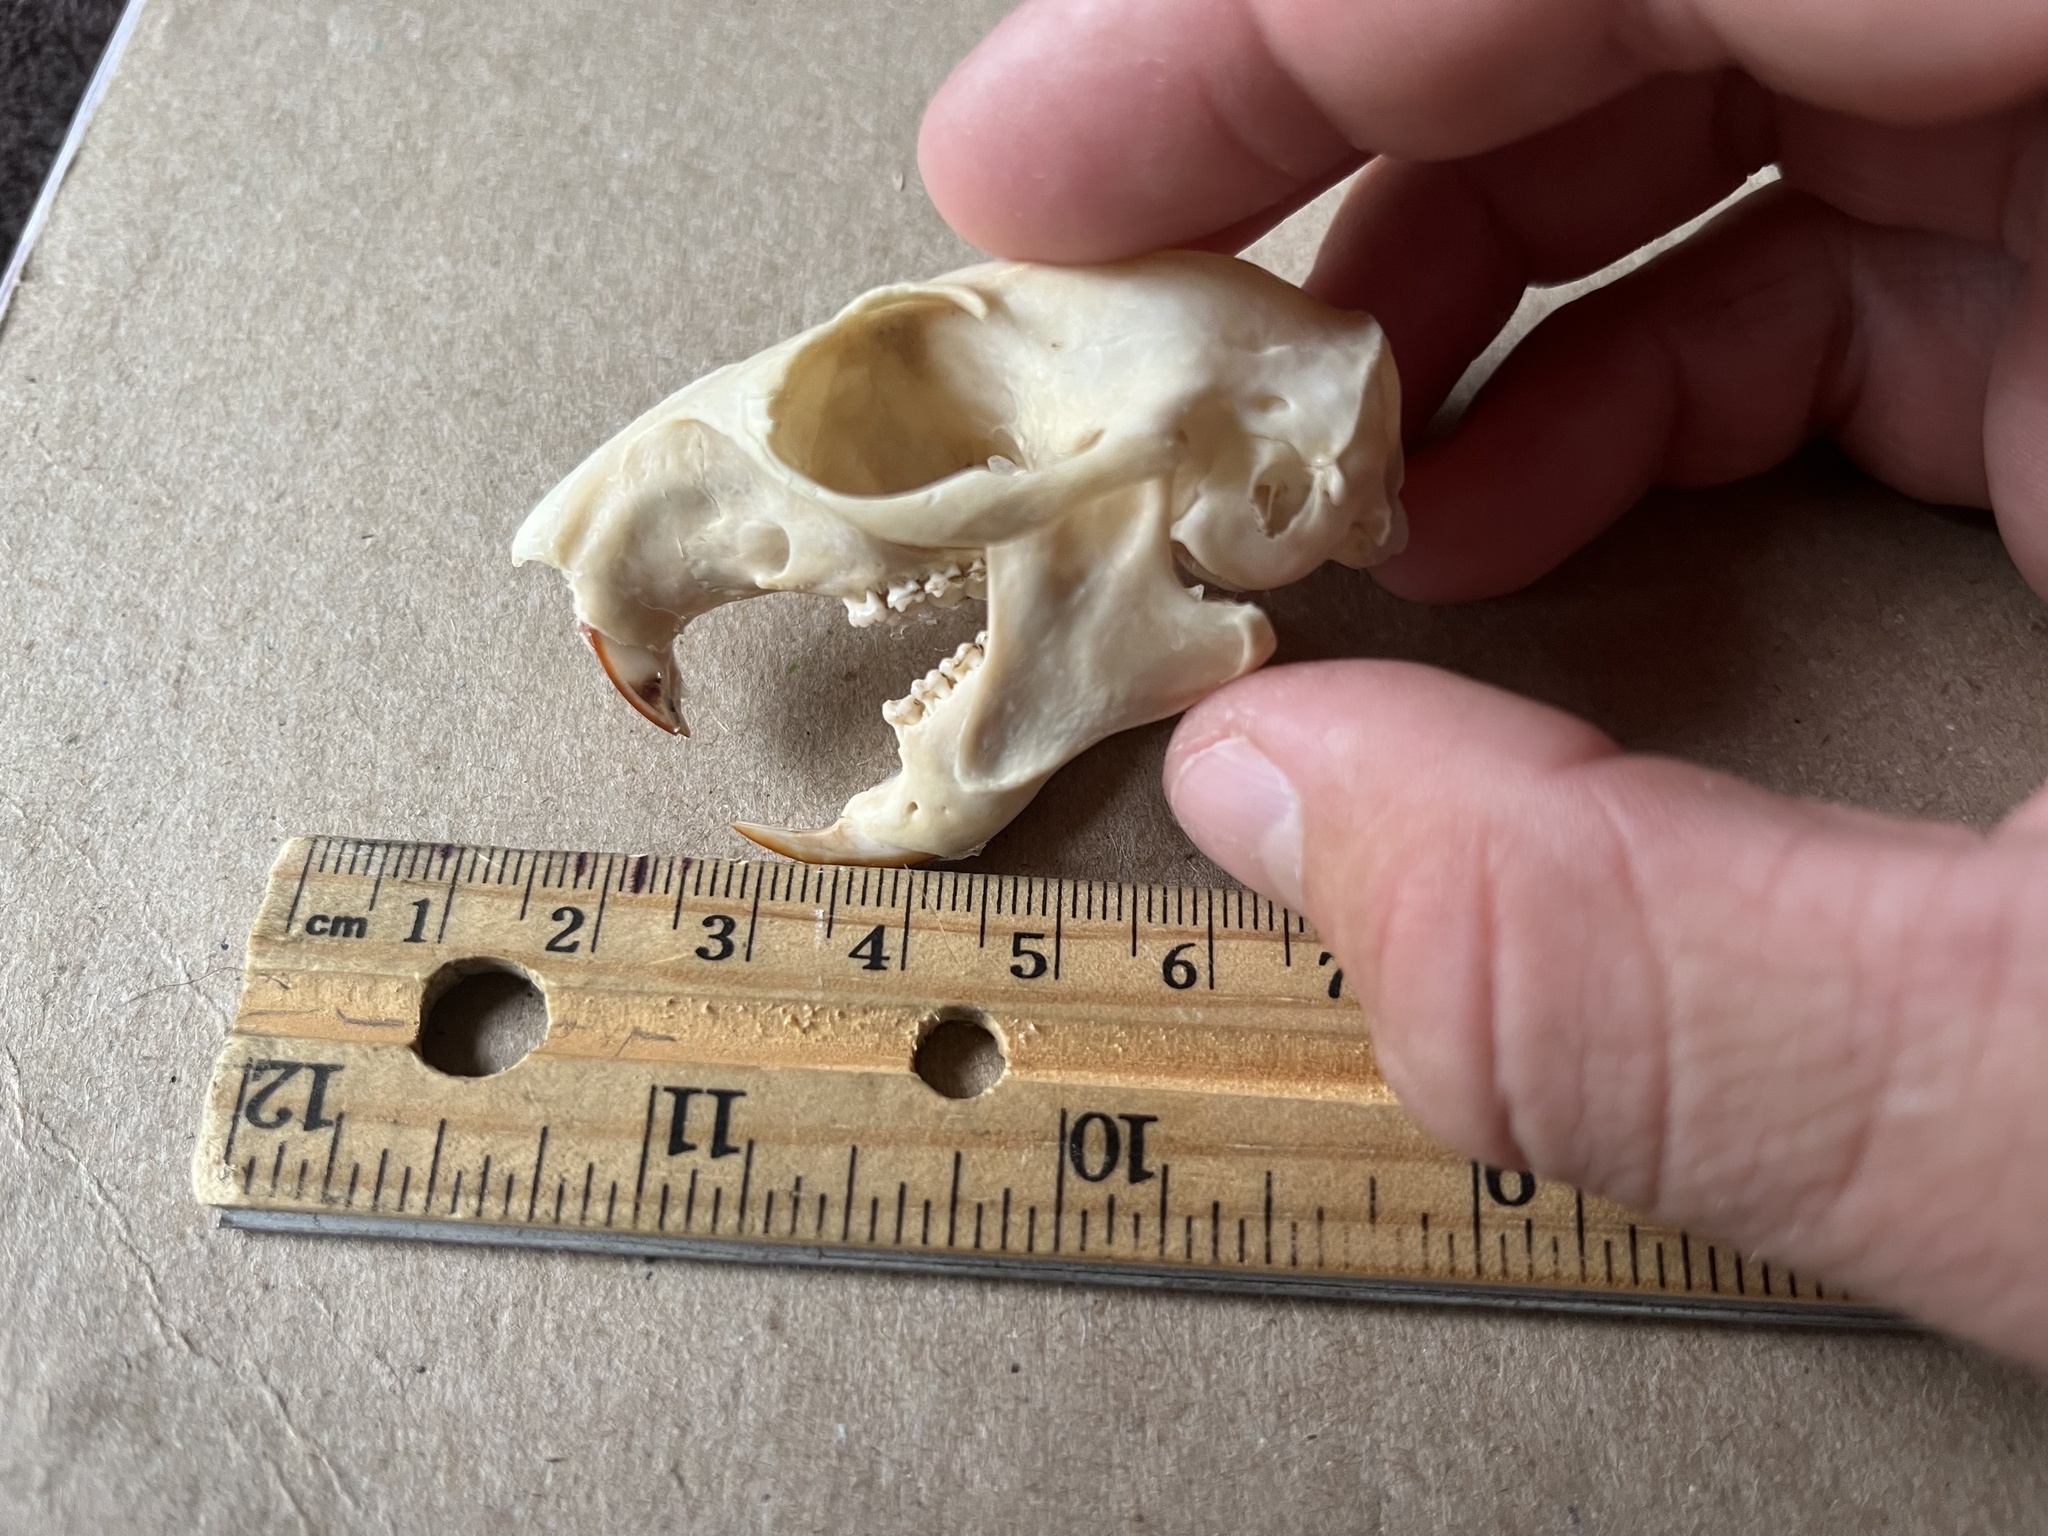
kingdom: Animalia
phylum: Chordata
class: Mammalia
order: Rodentia
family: Sciuridae
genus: Sciurus
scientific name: Sciurus niger
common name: Fox squirrel
